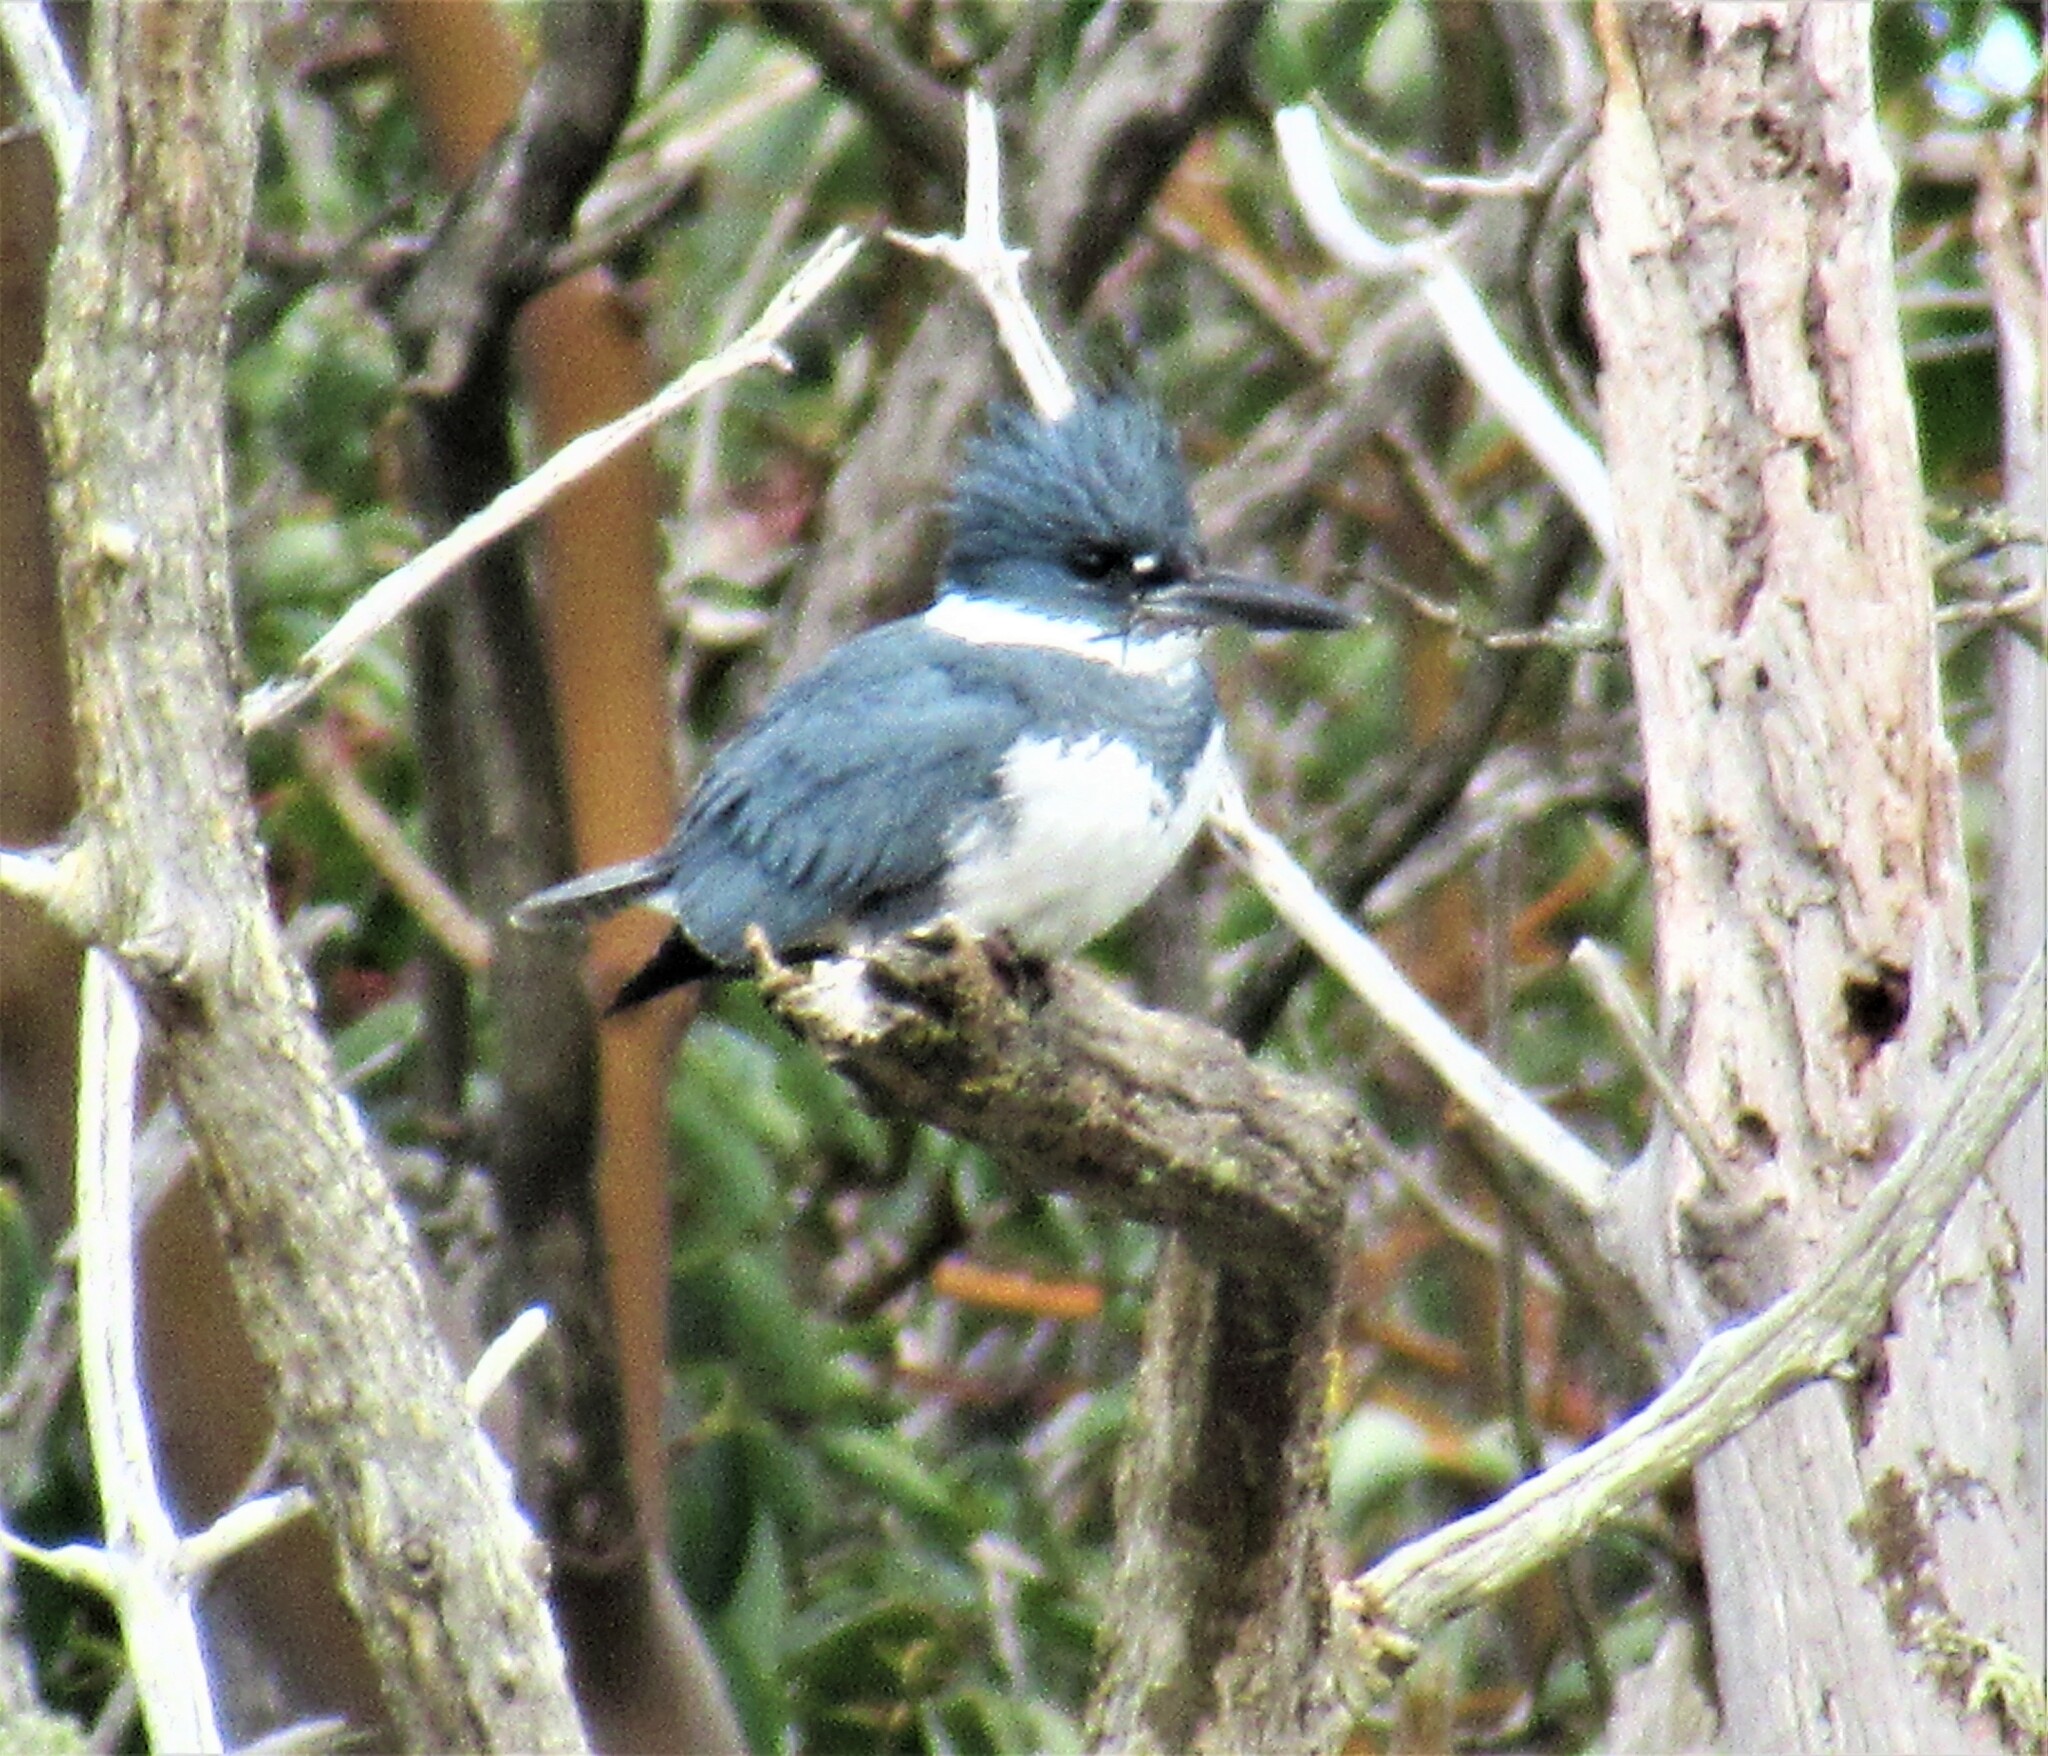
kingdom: Animalia
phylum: Chordata
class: Aves
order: Coraciiformes
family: Alcedinidae
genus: Megaceryle
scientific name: Megaceryle alcyon
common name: Belted kingfisher
